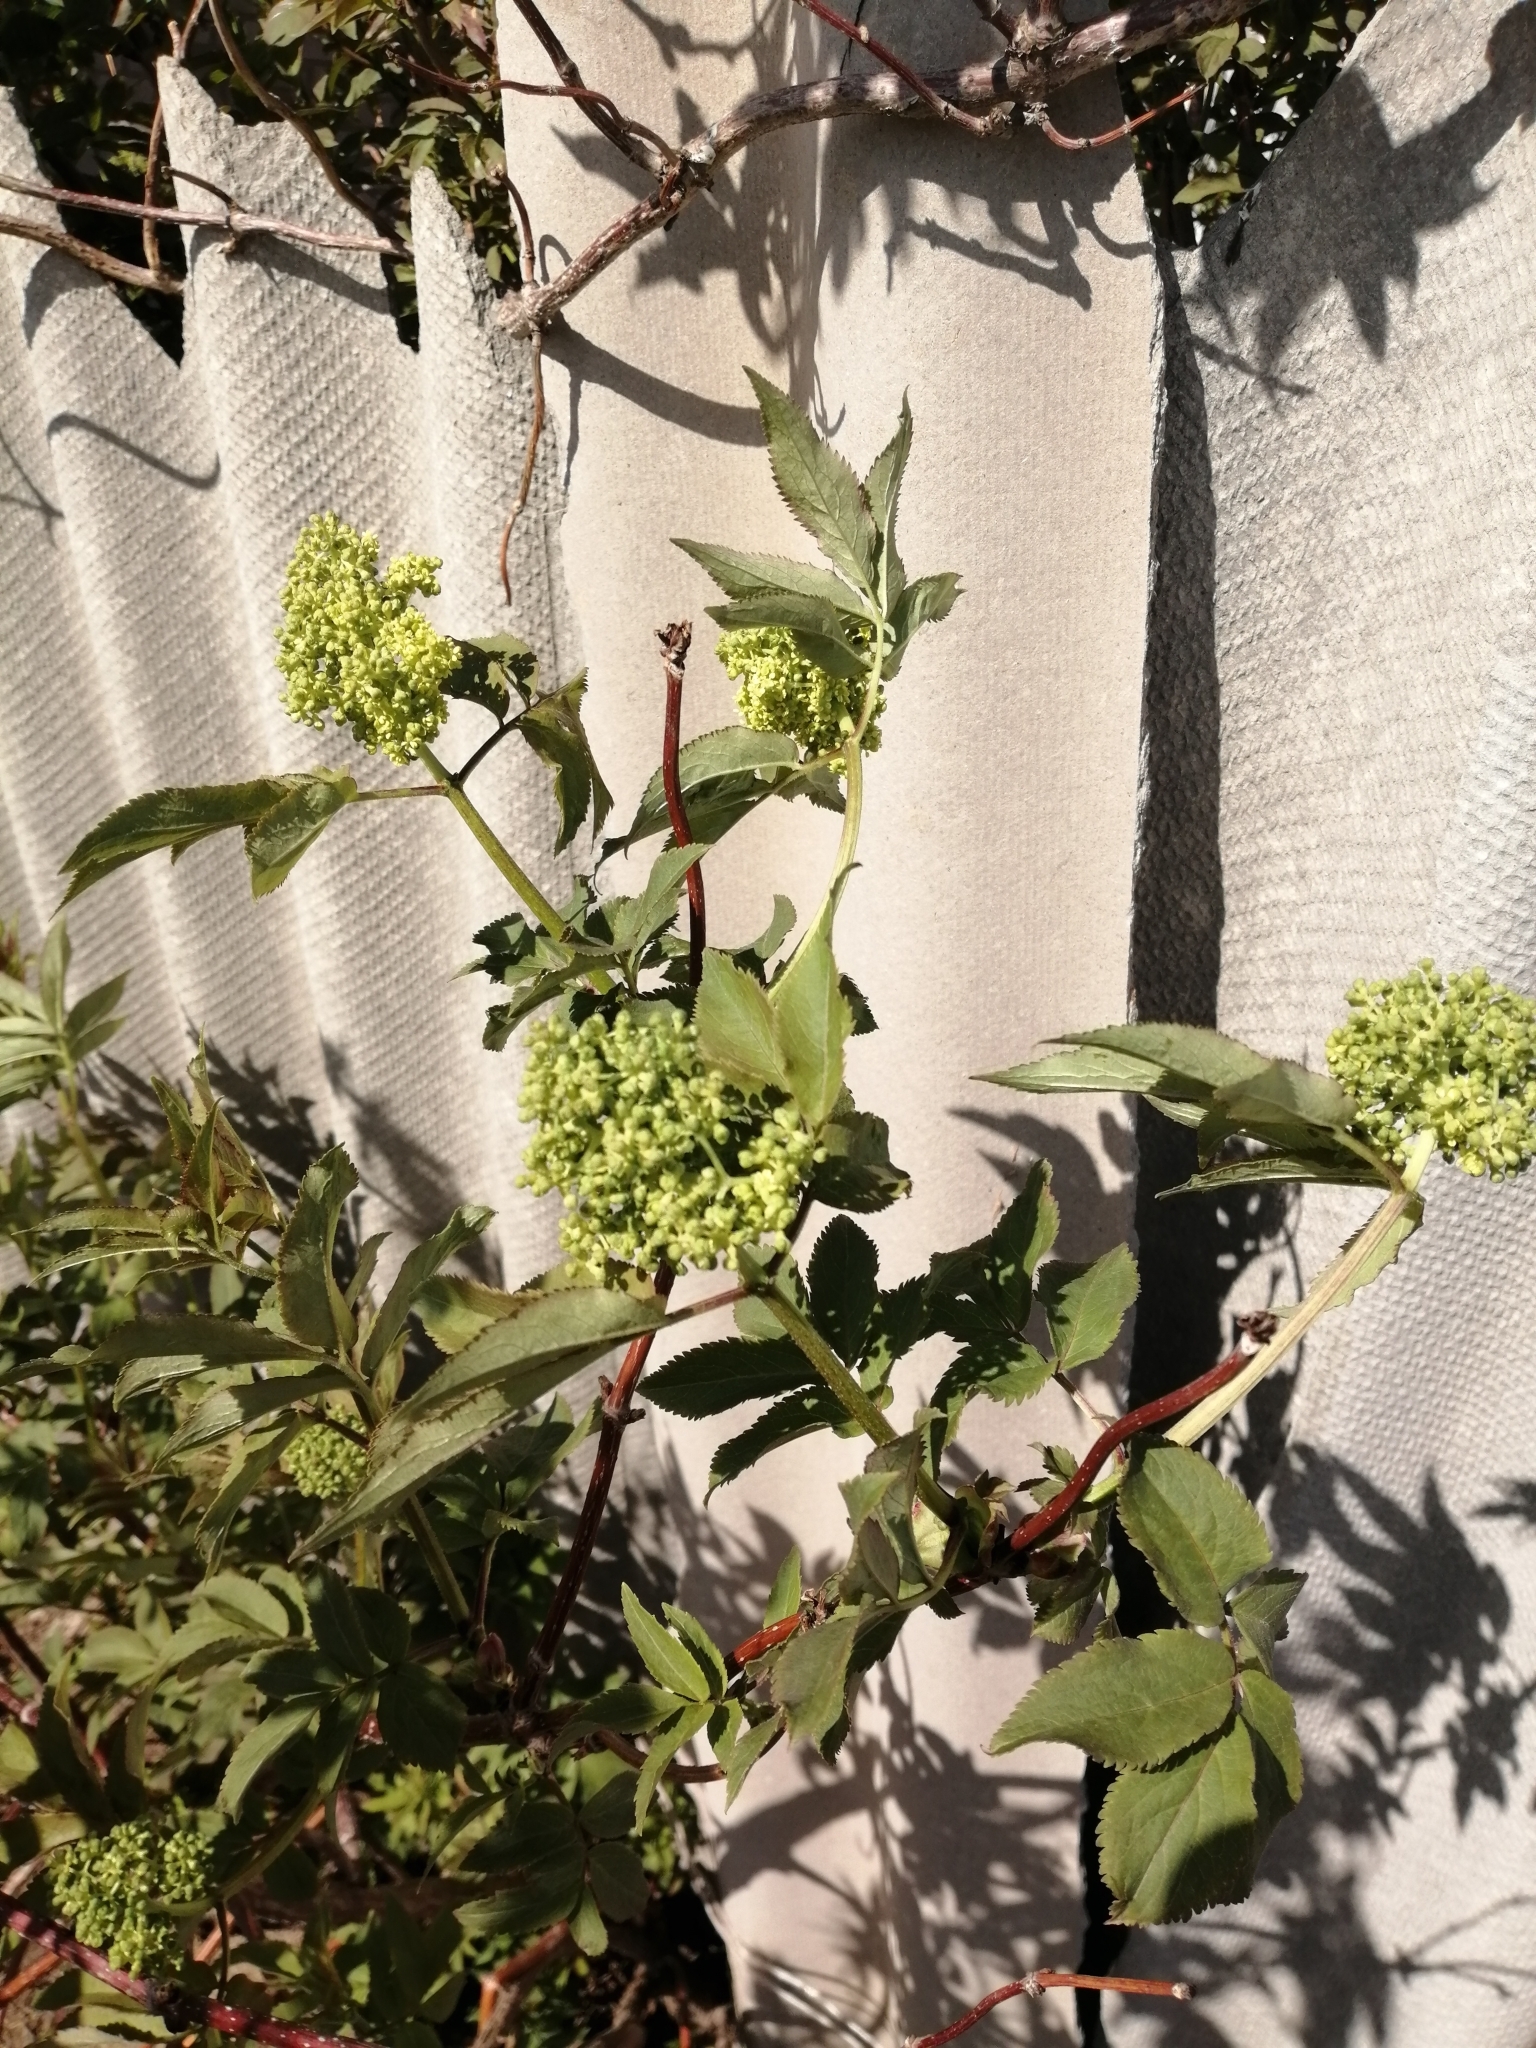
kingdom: Plantae
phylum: Tracheophyta
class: Magnoliopsida
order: Dipsacales
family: Viburnaceae
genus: Sambucus
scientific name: Sambucus racemosa
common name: Red-berried elder
